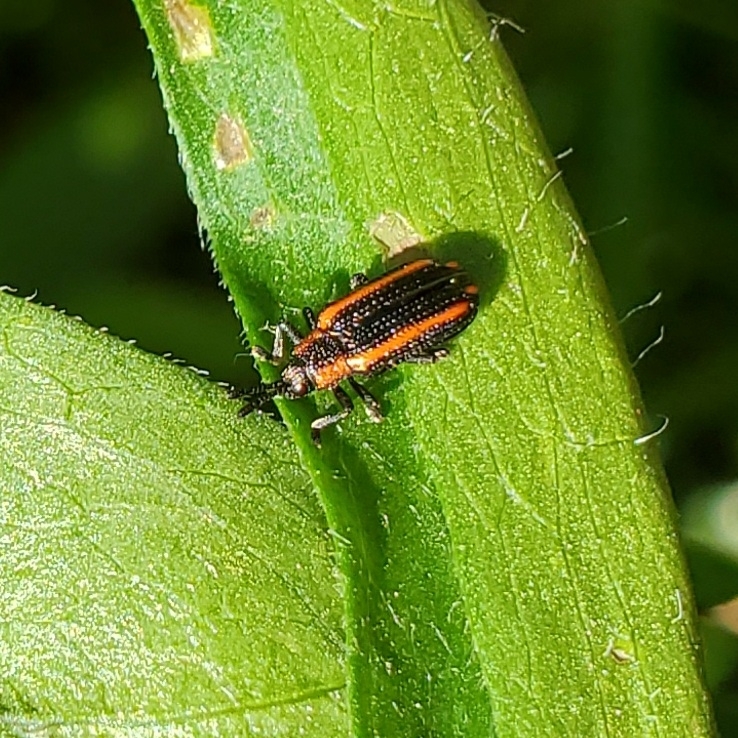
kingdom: Animalia
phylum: Arthropoda
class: Insecta
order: Coleoptera
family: Chrysomelidae
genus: Microrhopala
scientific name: Microrhopala xerene
